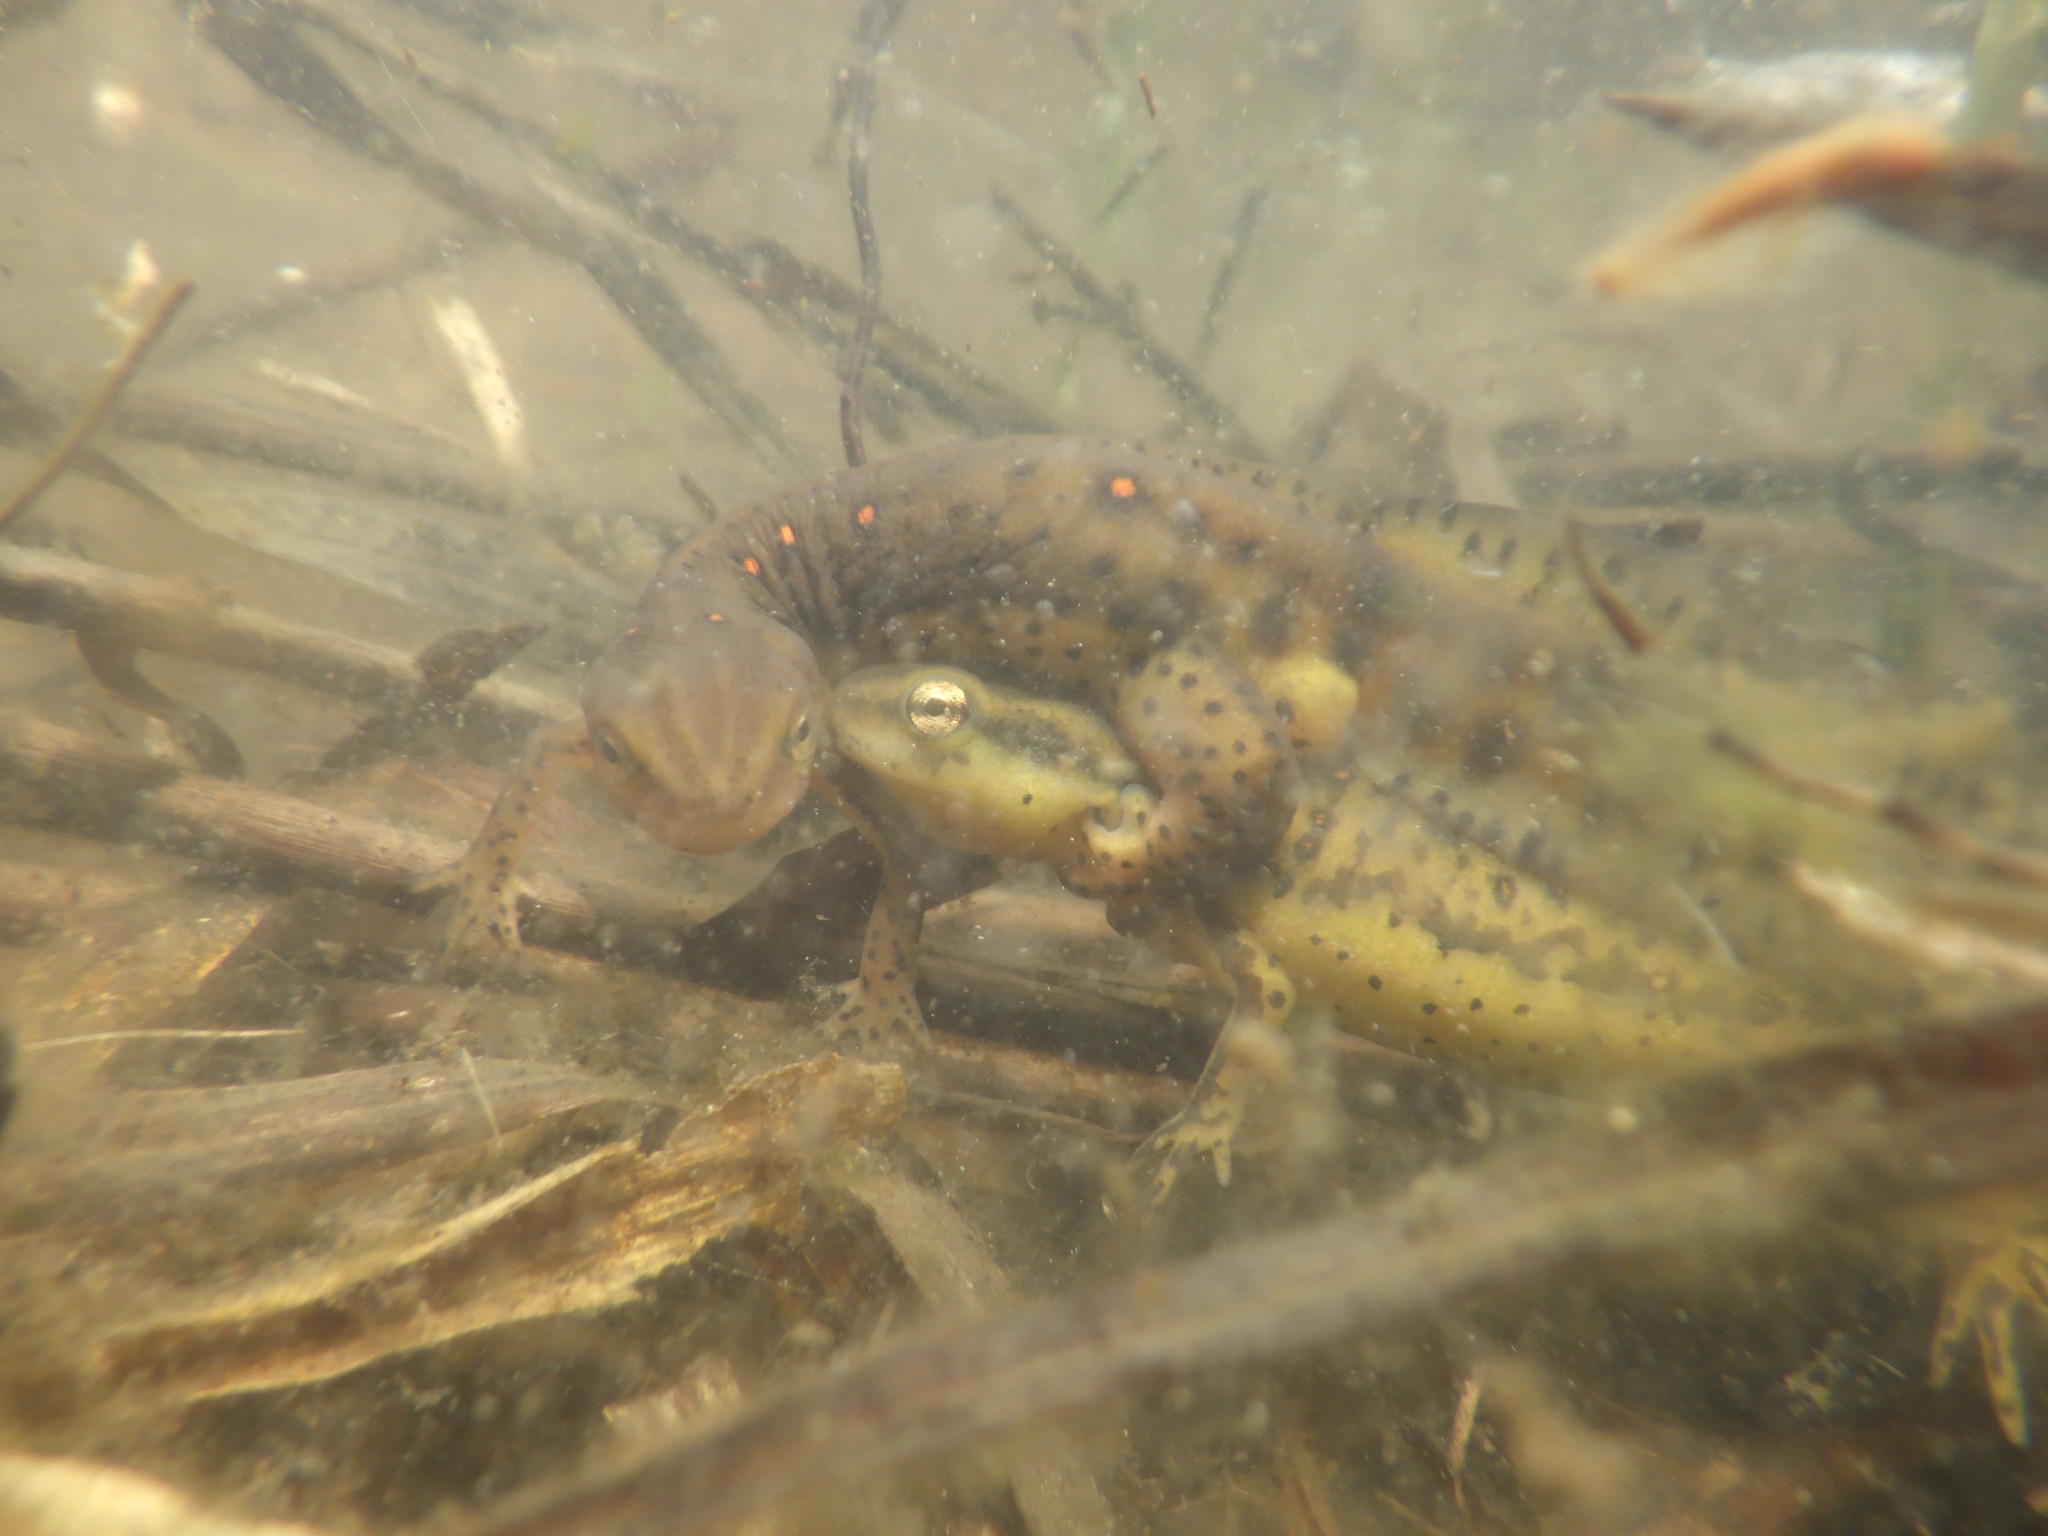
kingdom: Animalia
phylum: Chordata
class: Amphibia
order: Caudata
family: Salamandridae
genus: Notophthalmus
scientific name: Notophthalmus viridescens
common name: Eastern newt
